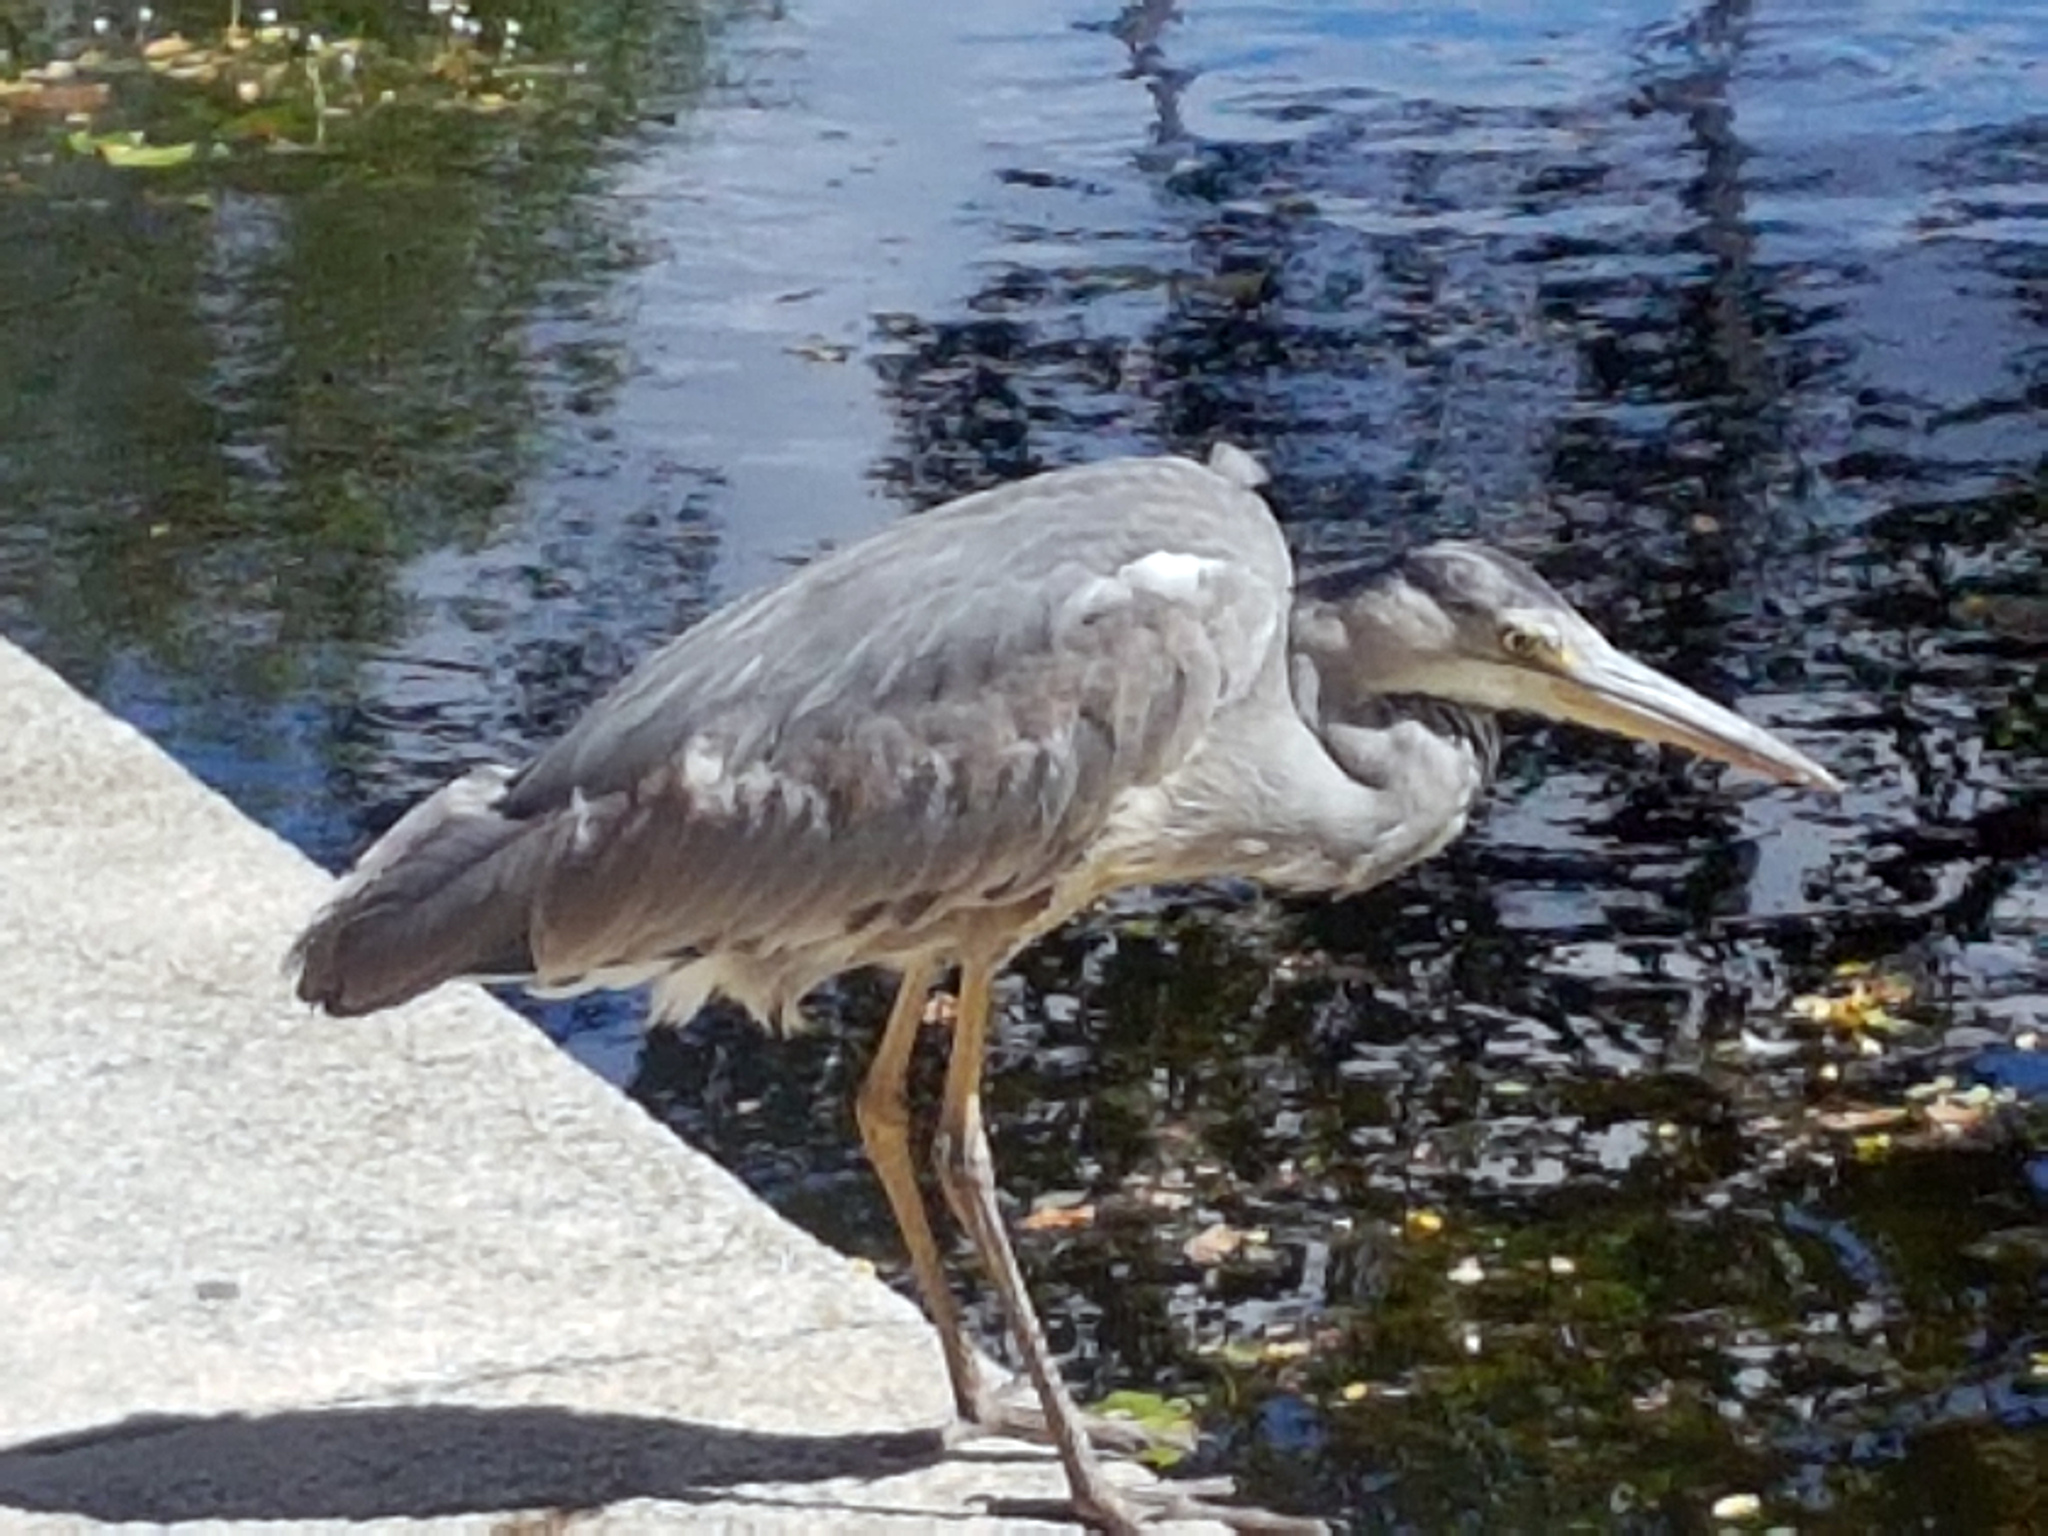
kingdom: Animalia
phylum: Chordata
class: Aves
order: Pelecaniformes
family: Ardeidae
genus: Ardea
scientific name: Ardea cinerea
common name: Grey heron
